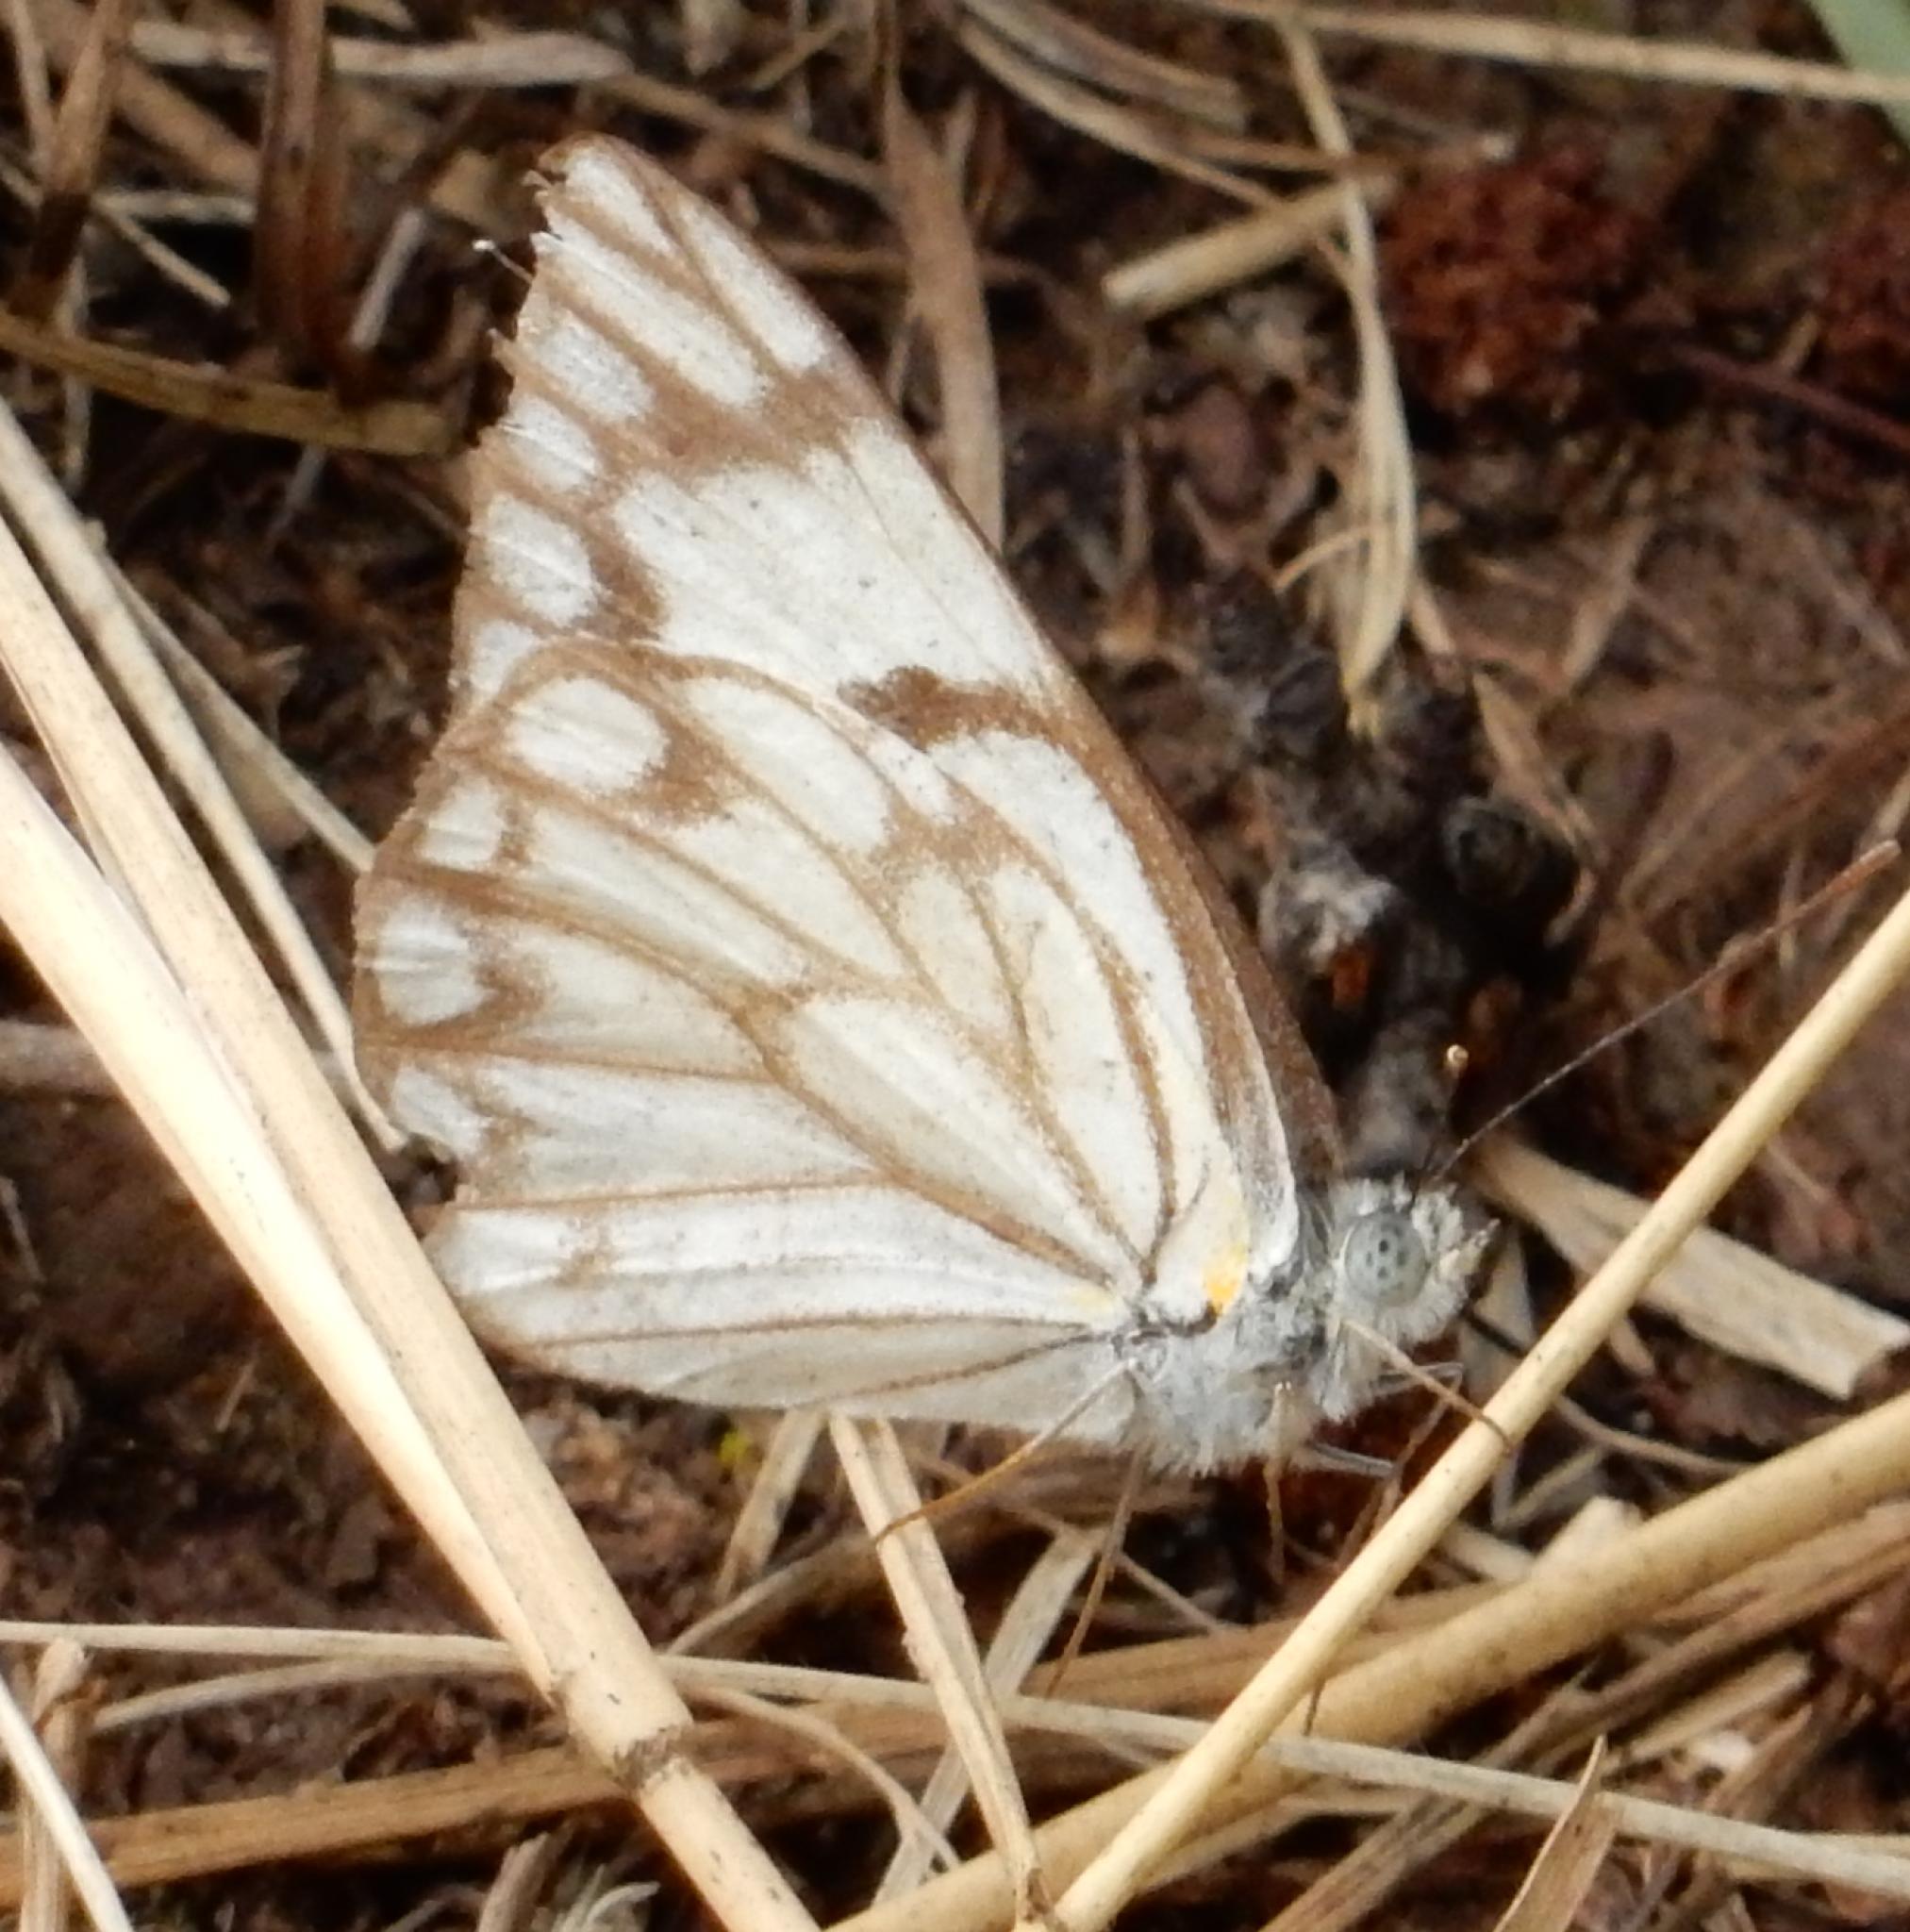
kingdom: Animalia
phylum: Arthropoda
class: Insecta
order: Lepidoptera
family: Pieridae
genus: Belenois
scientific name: Belenois aurota
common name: Brown-veined white
